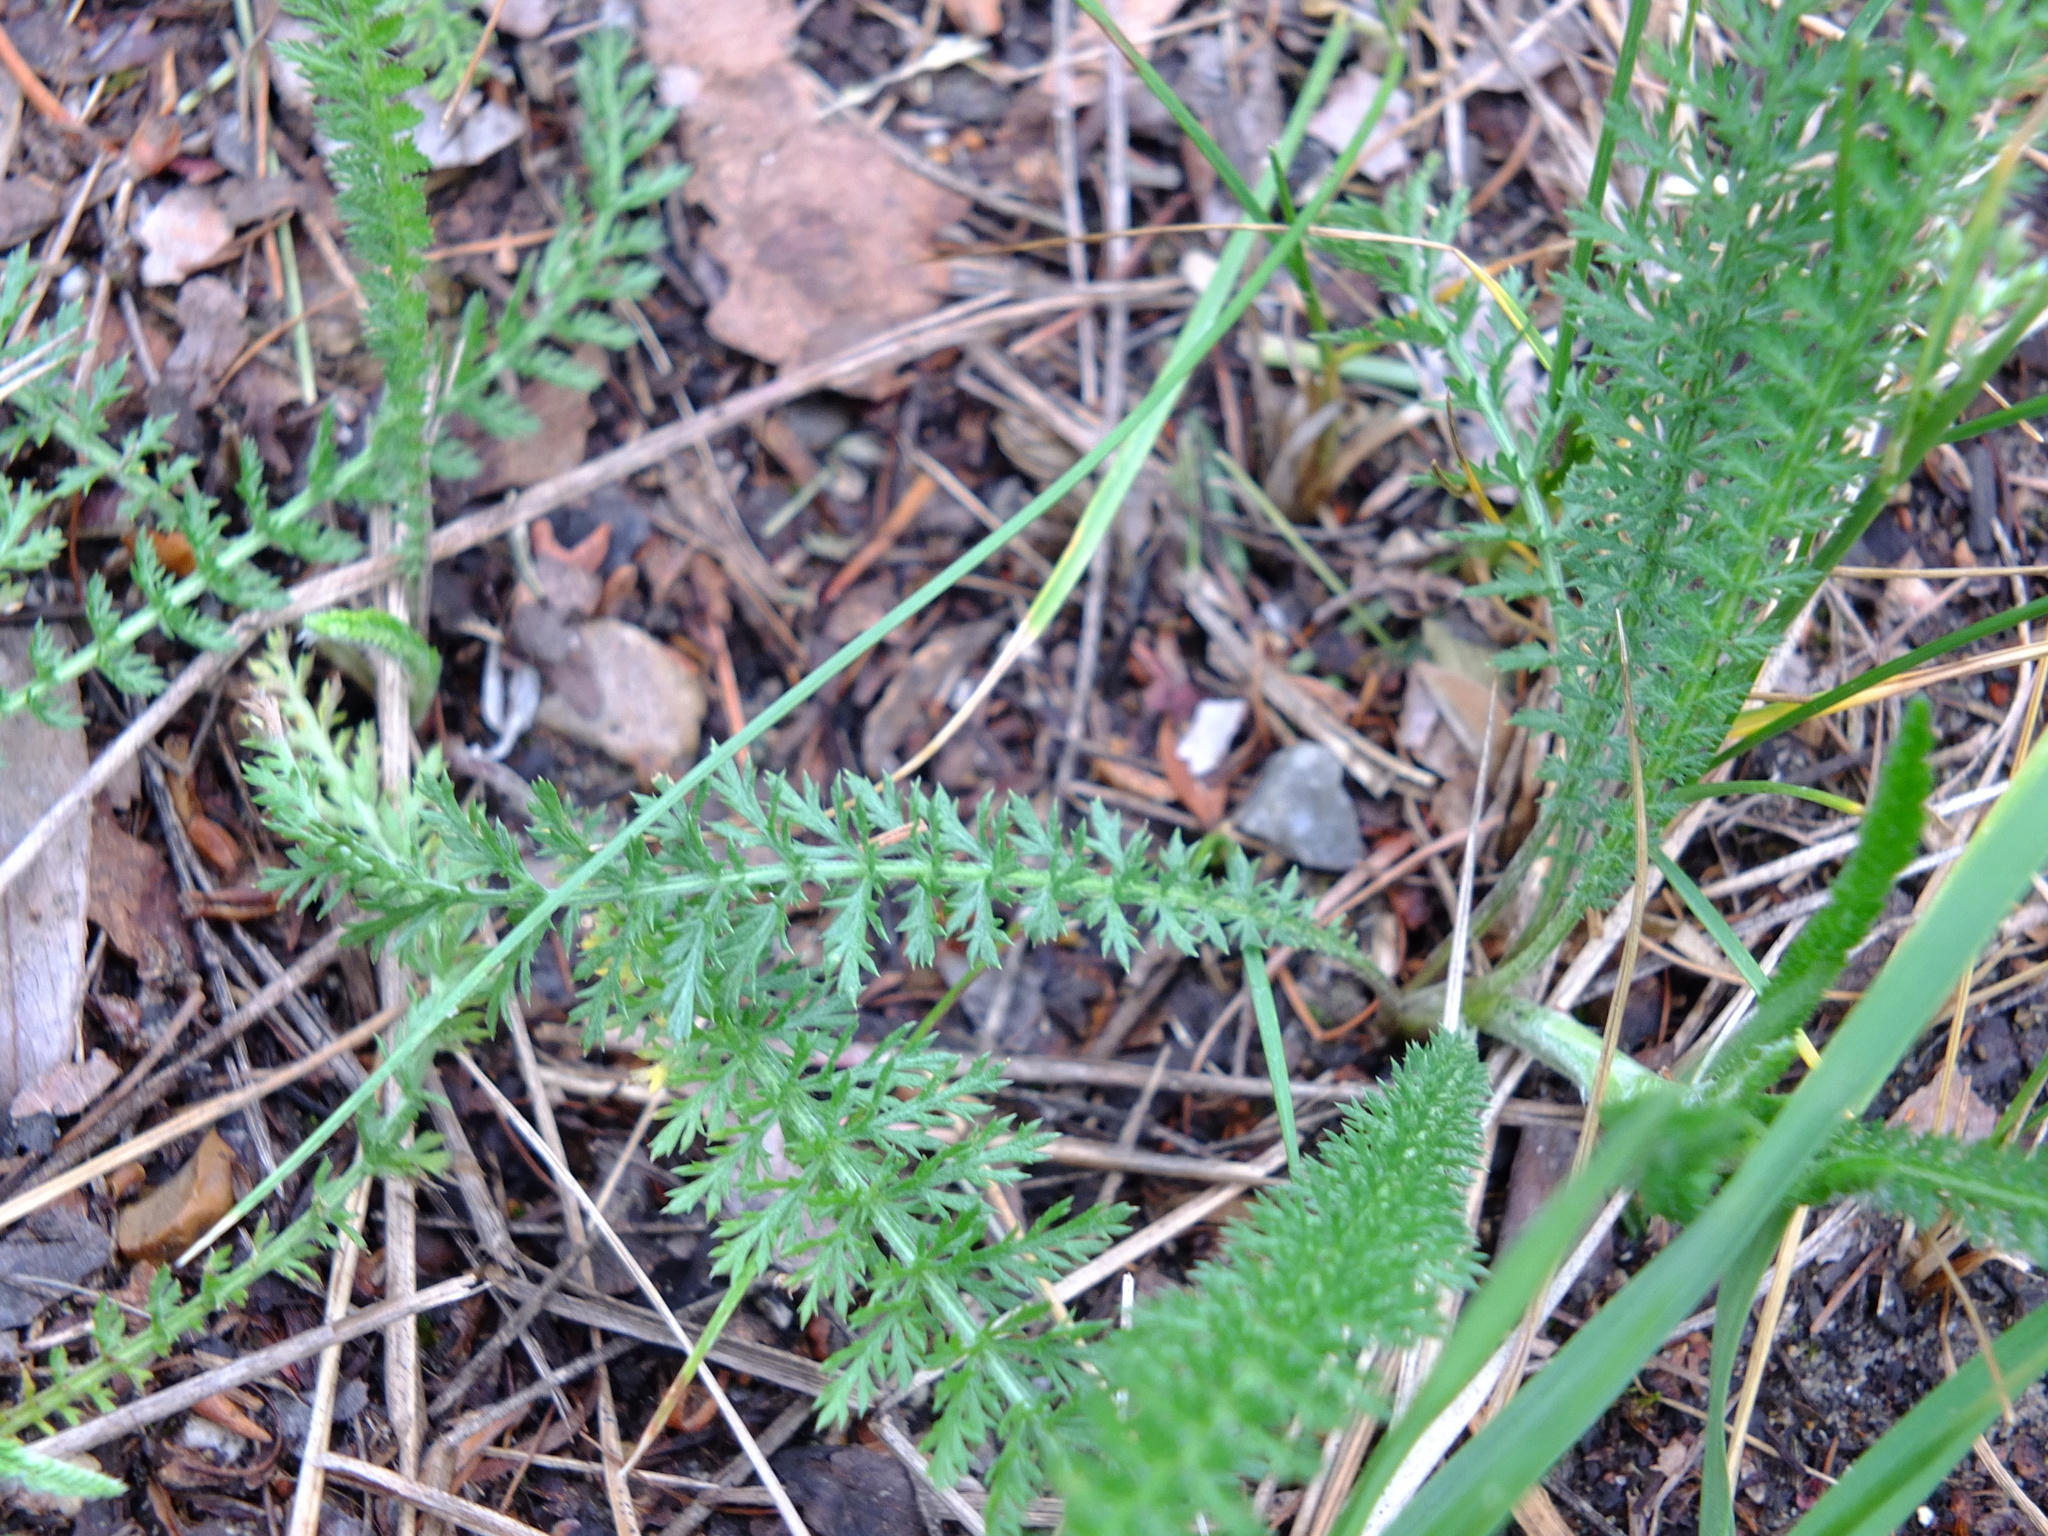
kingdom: Plantae
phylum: Tracheophyta
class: Magnoliopsida
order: Asterales
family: Asteraceae
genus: Achillea
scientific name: Achillea millefolium
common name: Yarrow
